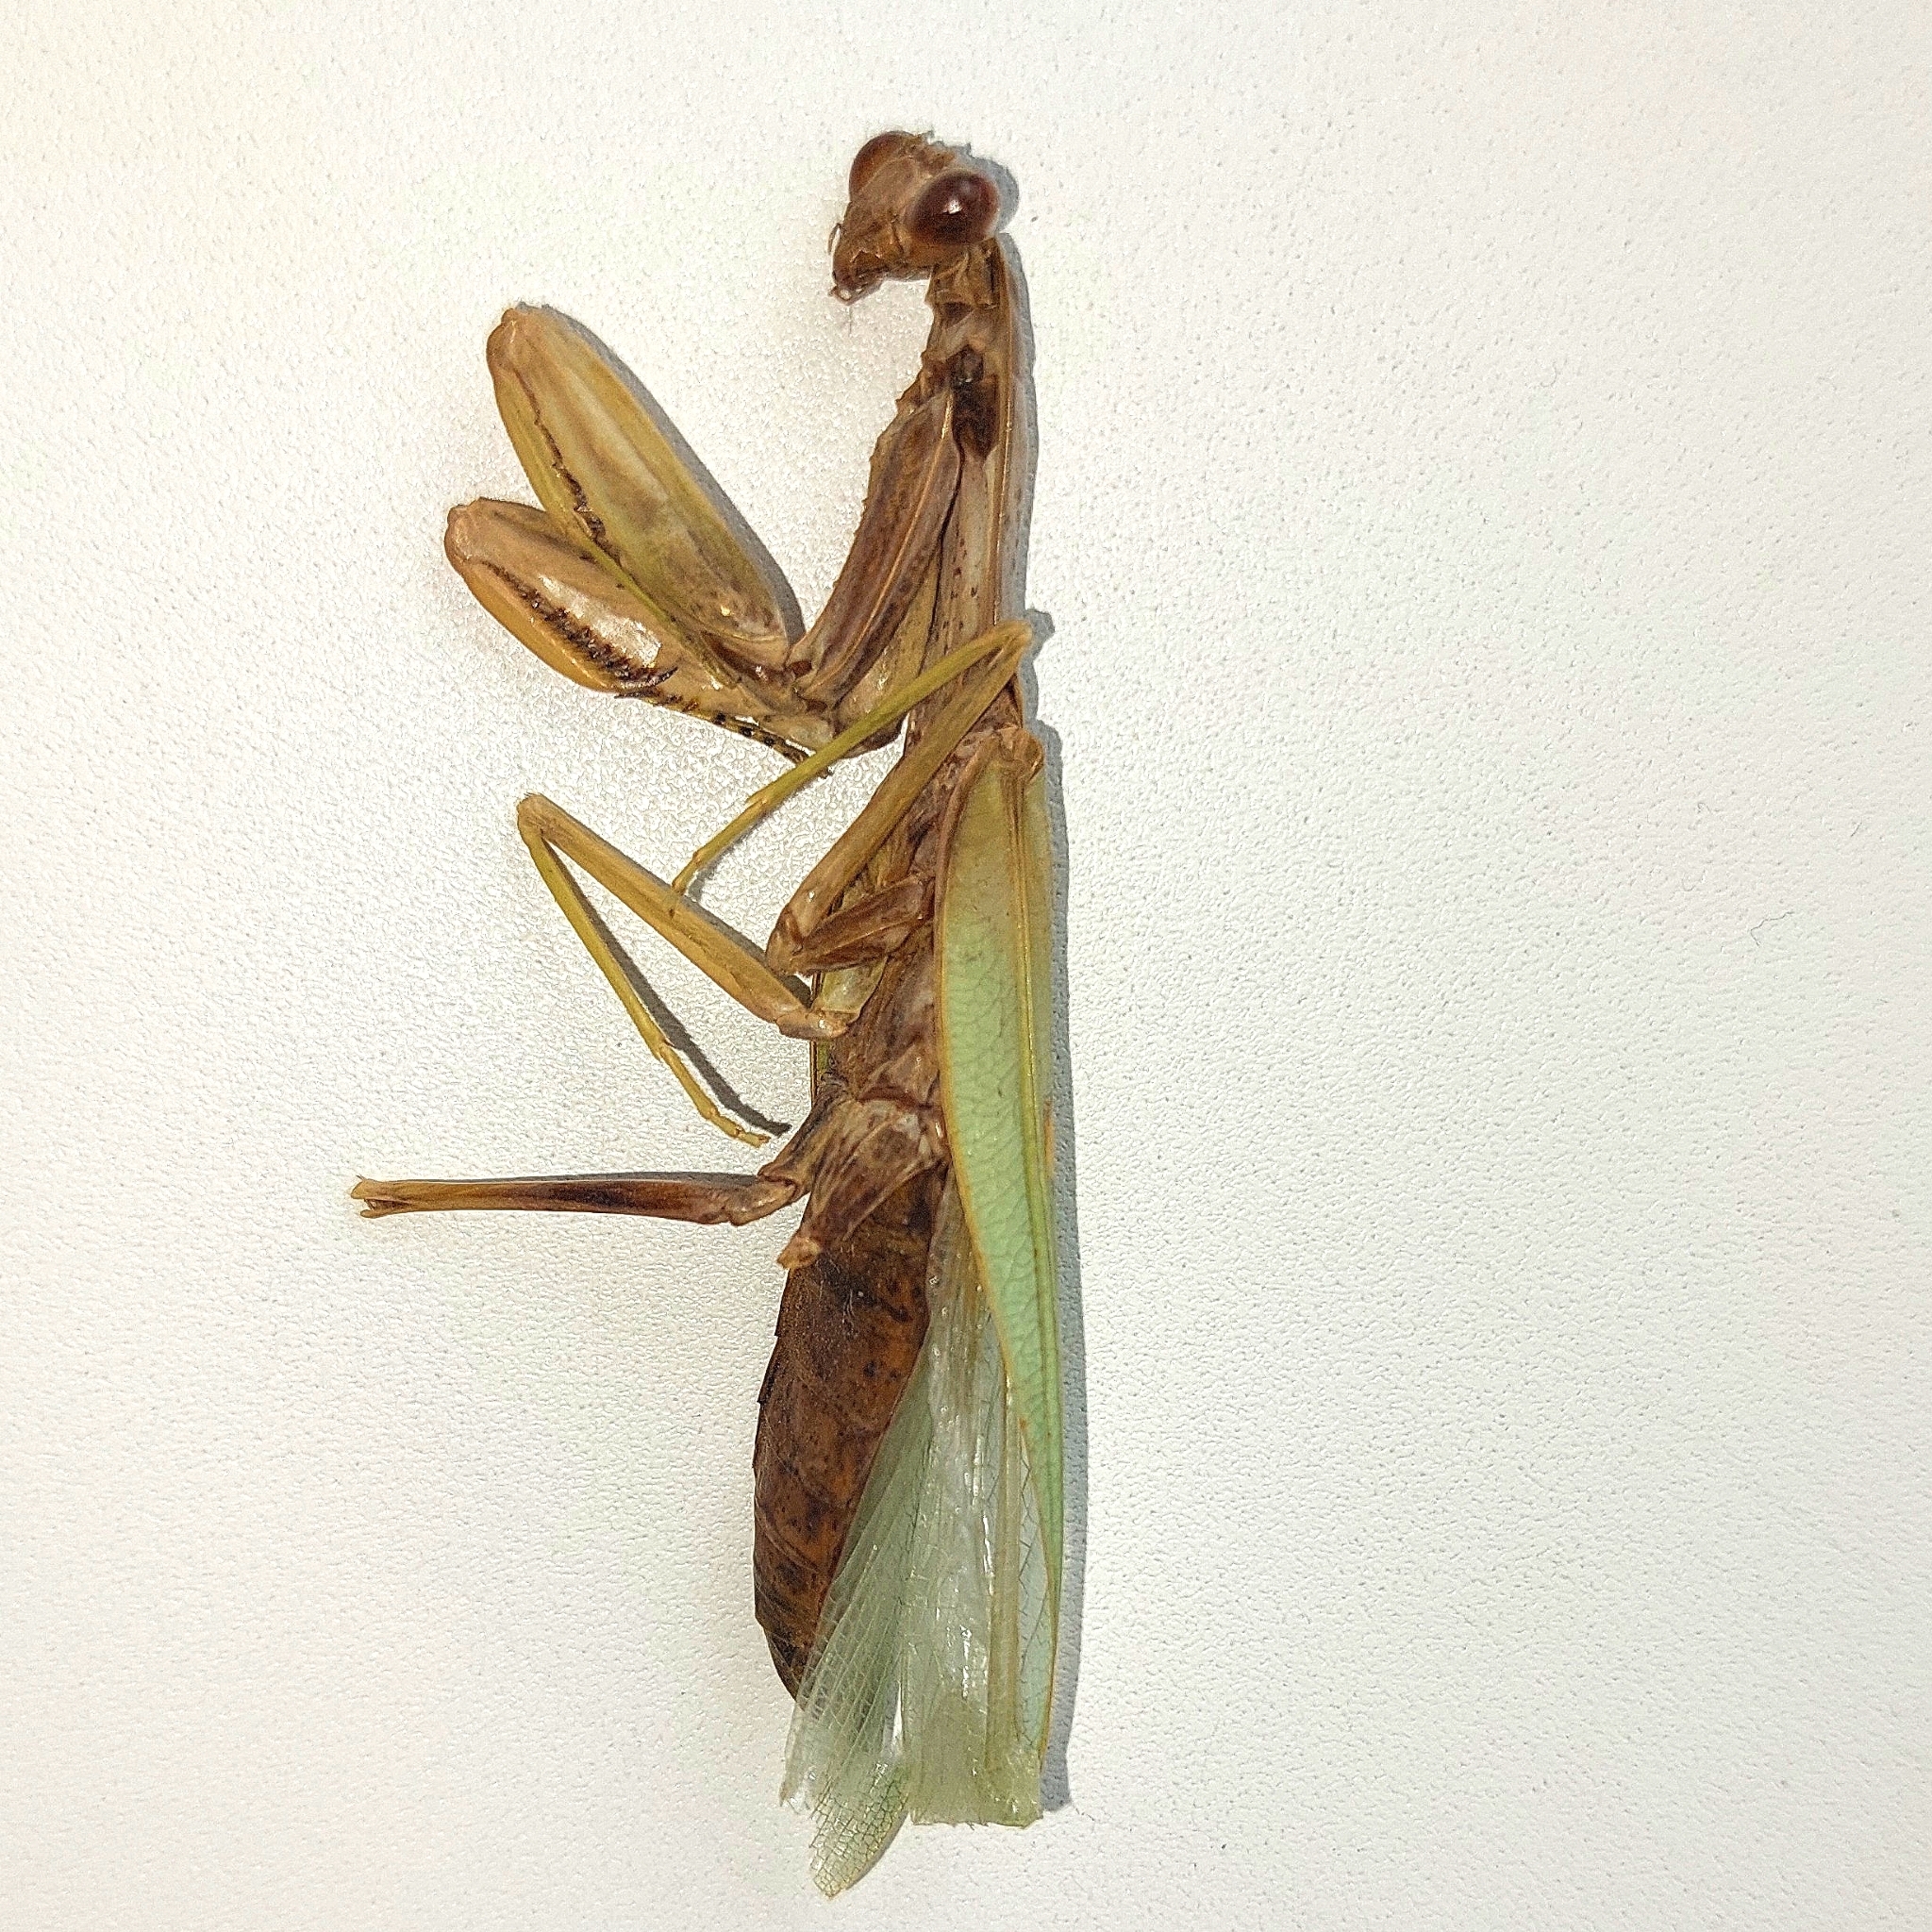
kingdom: Animalia
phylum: Arthropoda
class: Insecta
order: Mantodea
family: Mantidae
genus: Hierodula
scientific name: Hierodula transcaucasica
